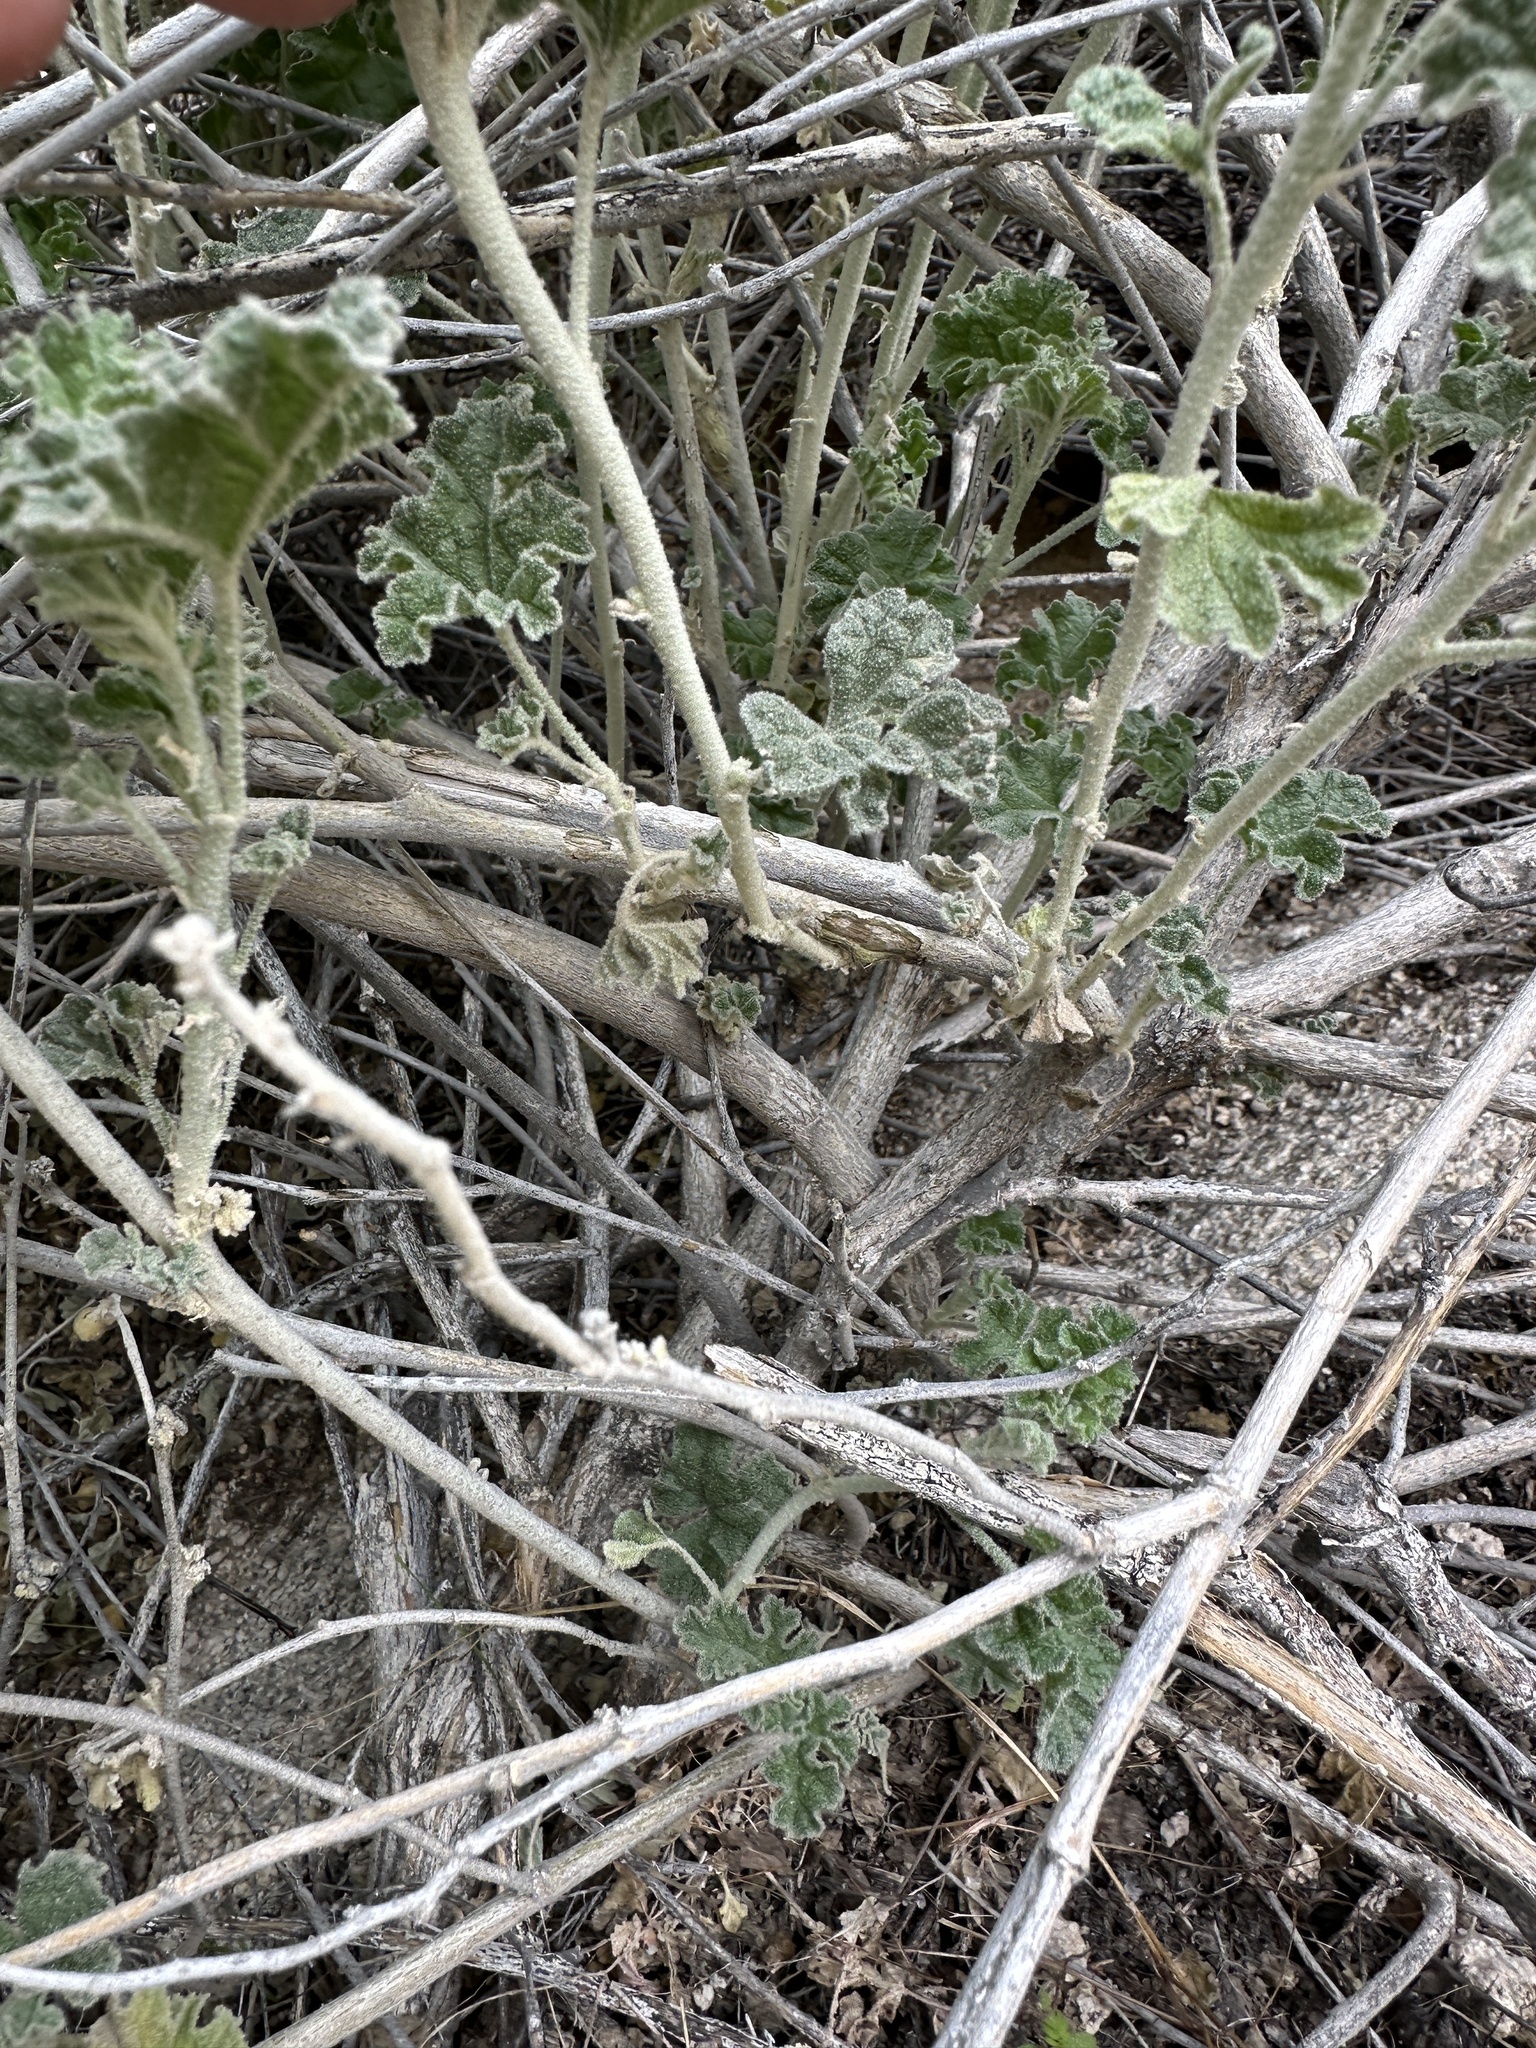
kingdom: Plantae
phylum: Tracheophyta
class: Magnoliopsida
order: Malvales
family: Malvaceae
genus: Sphaeralcea
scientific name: Sphaeralcea ambigua
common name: Apricot globe-mallow
